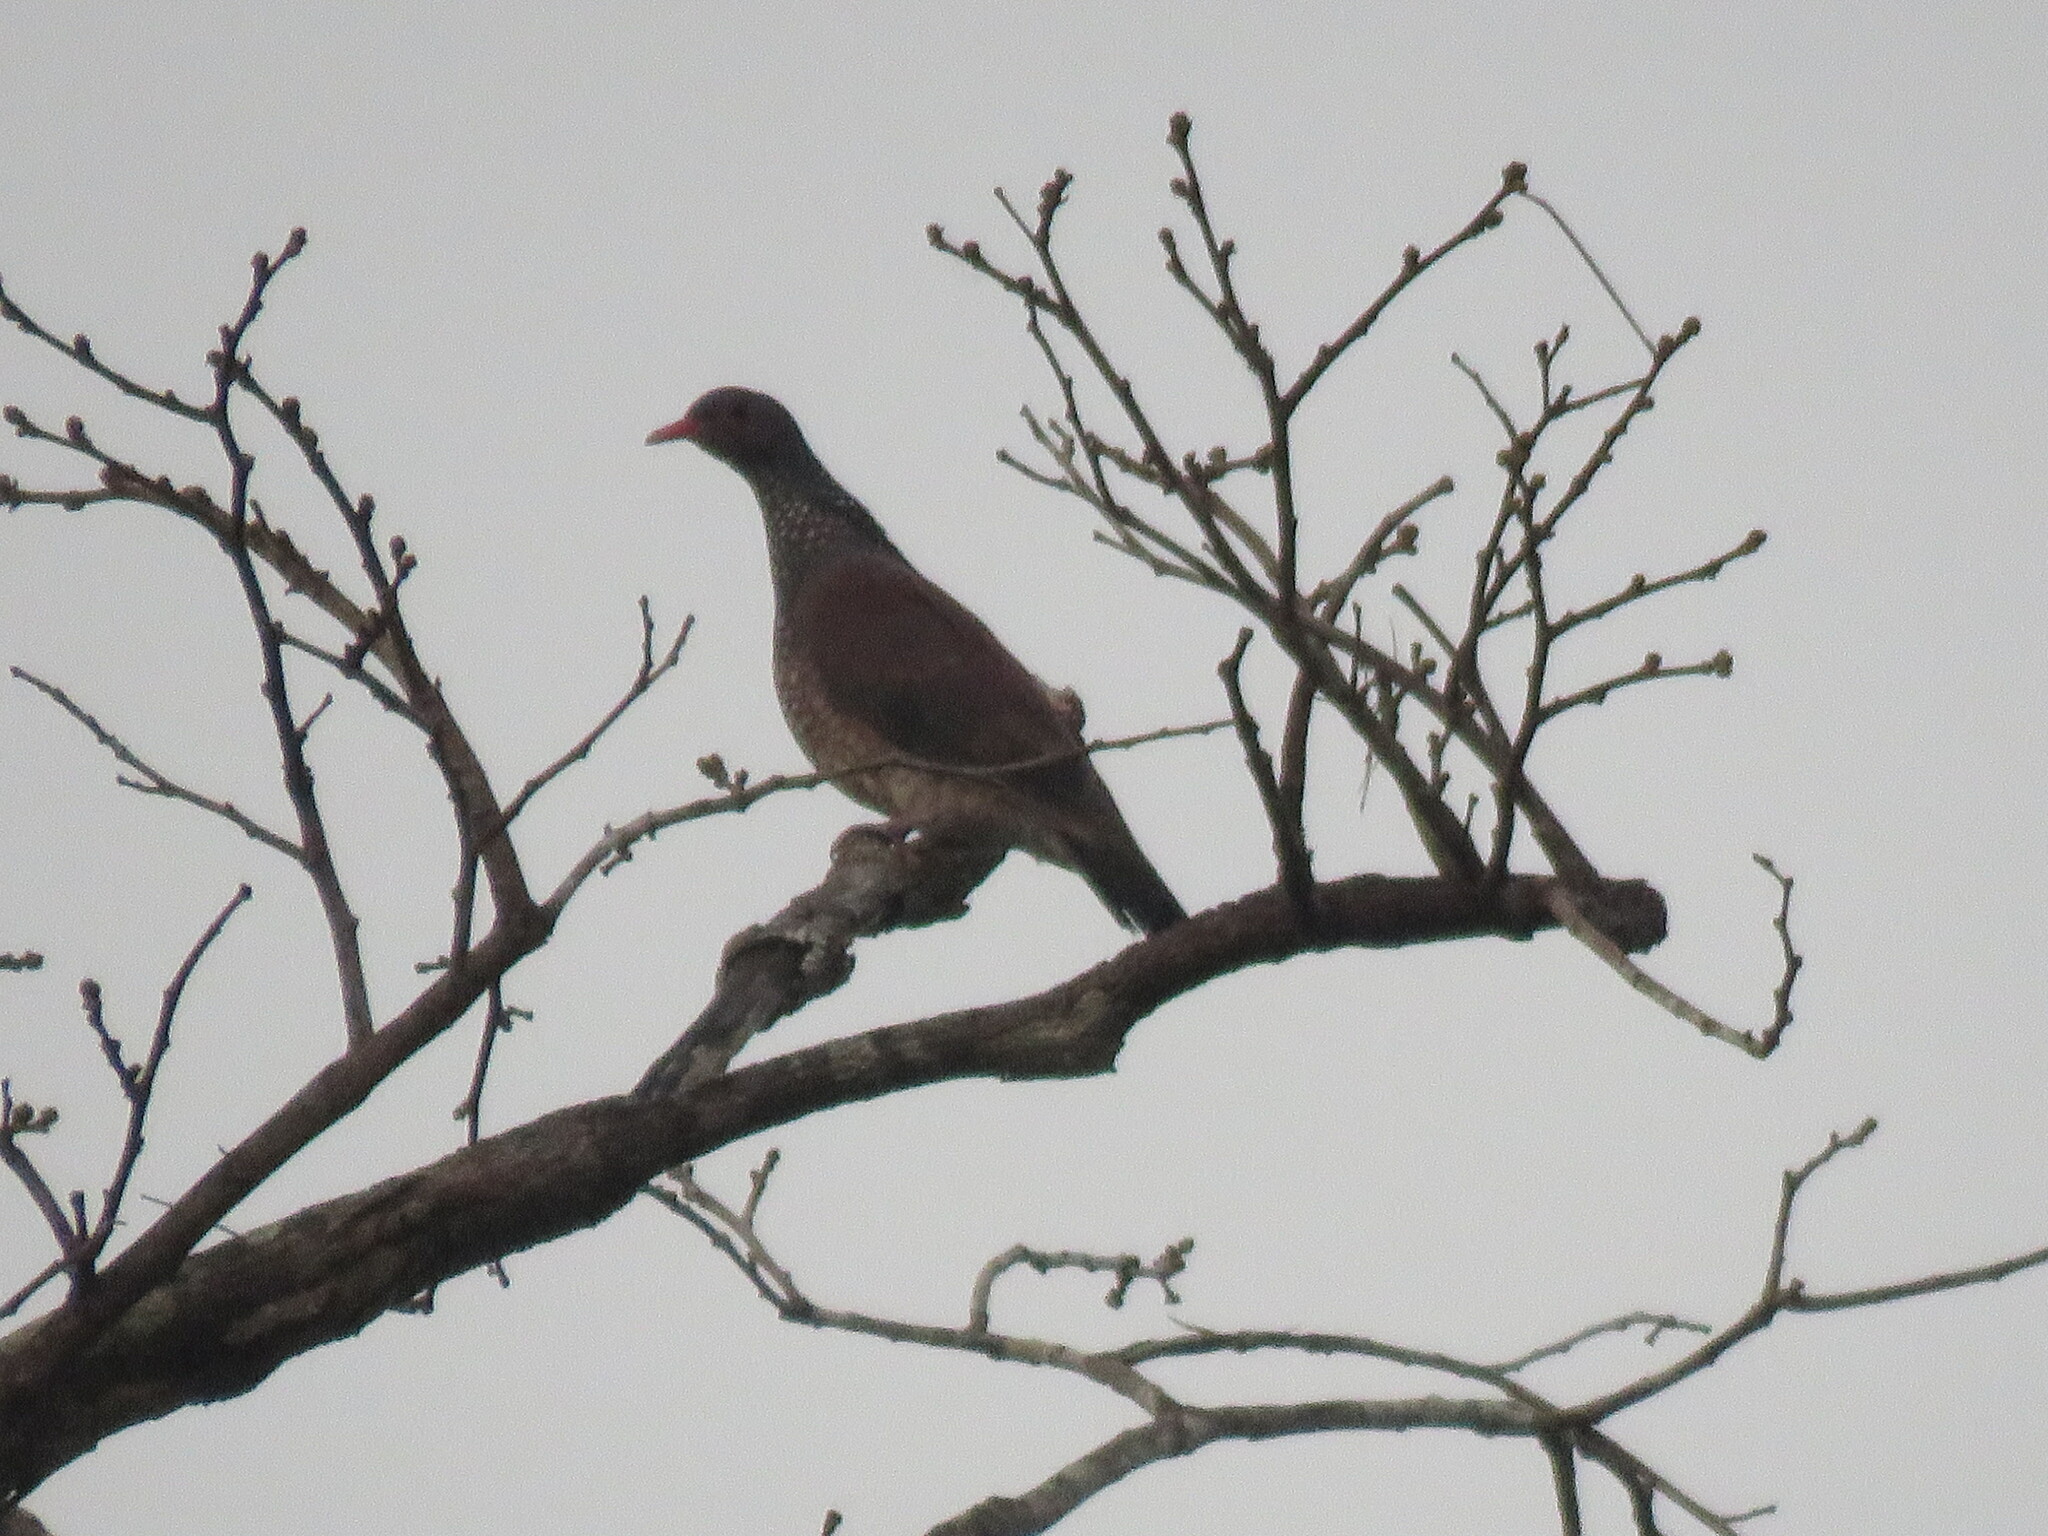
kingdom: Animalia
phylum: Chordata
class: Aves
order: Columbiformes
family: Columbidae
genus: Patagioenas
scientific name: Patagioenas speciosa
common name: Scaled pigeon
